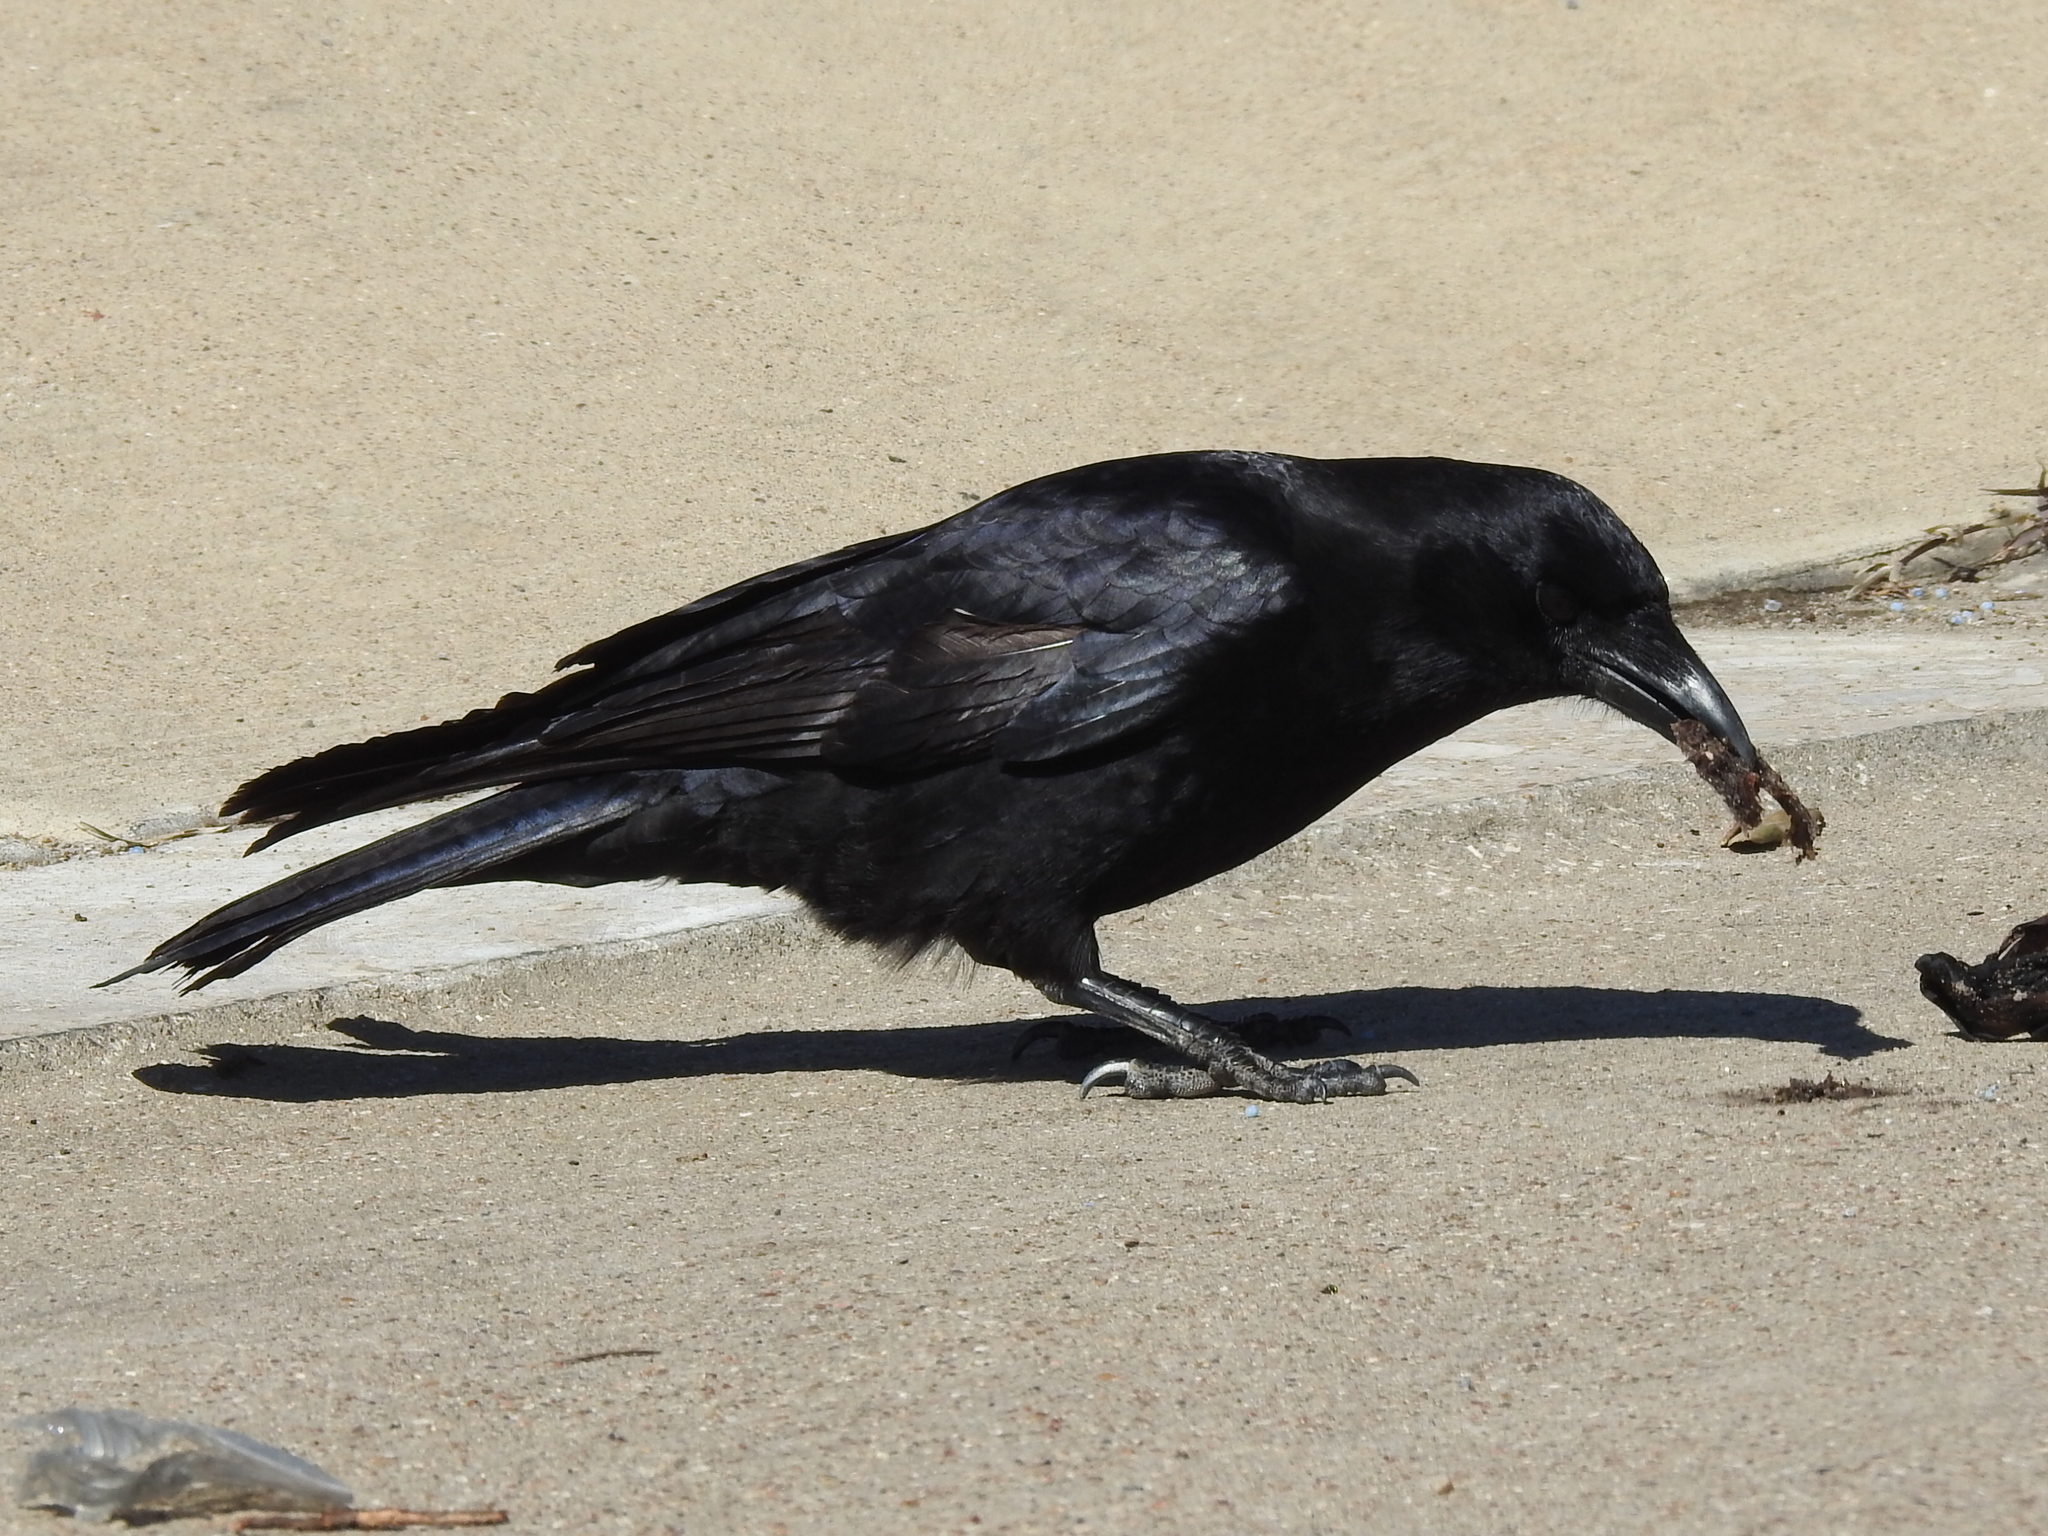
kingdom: Animalia
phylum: Chordata
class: Aves
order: Passeriformes
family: Corvidae
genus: Corvus
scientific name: Corvus brachyrhynchos
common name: American crow
